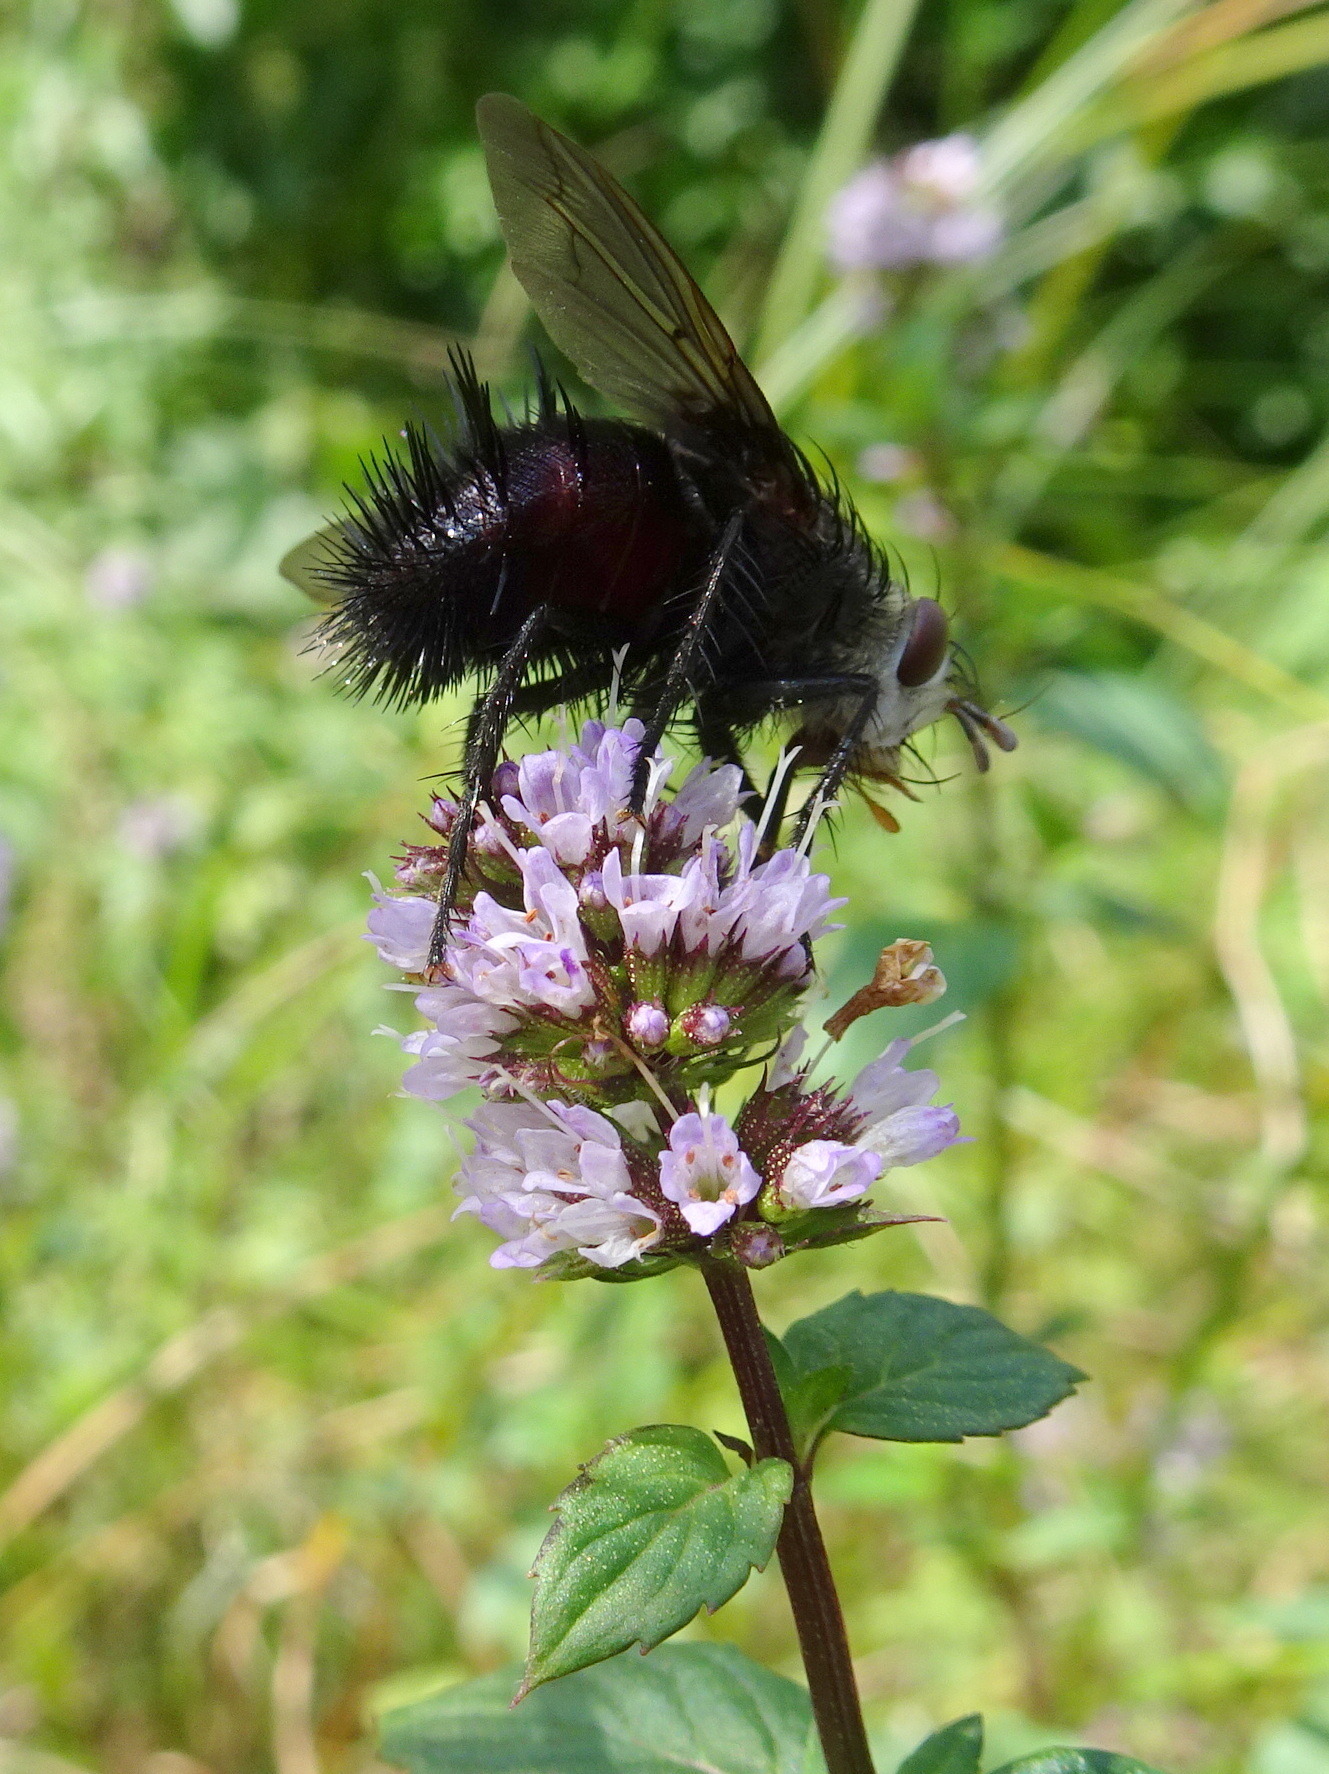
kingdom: Animalia
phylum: Arthropoda
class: Insecta
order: Diptera
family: Tachinidae
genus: Juriniopsis
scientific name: Juriniopsis adusta
